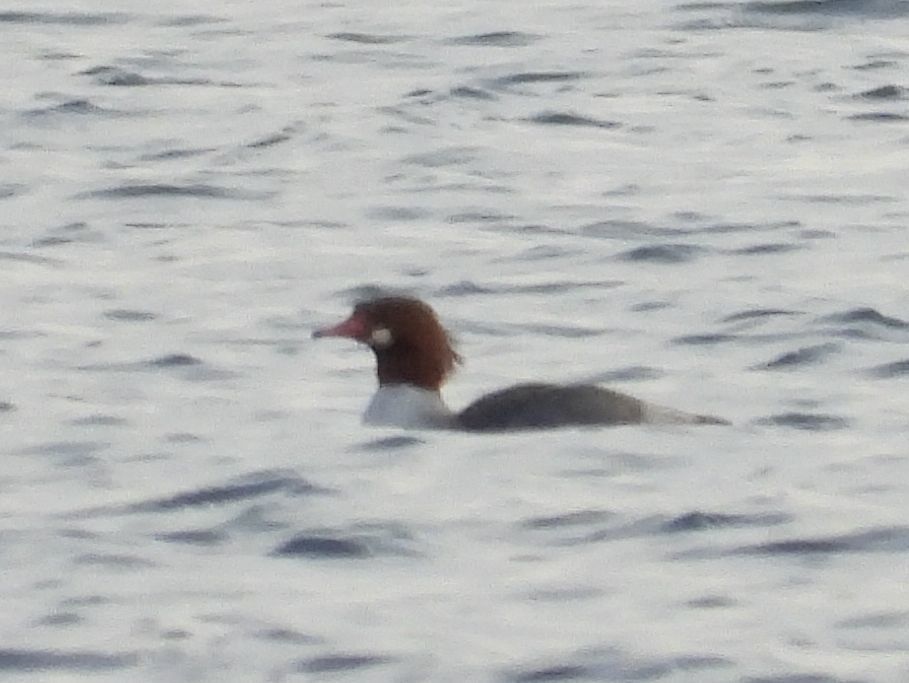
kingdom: Animalia
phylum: Chordata
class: Aves
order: Anseriformes
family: Anatidae
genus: Mergus
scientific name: Mergus merganser
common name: Common merganser
